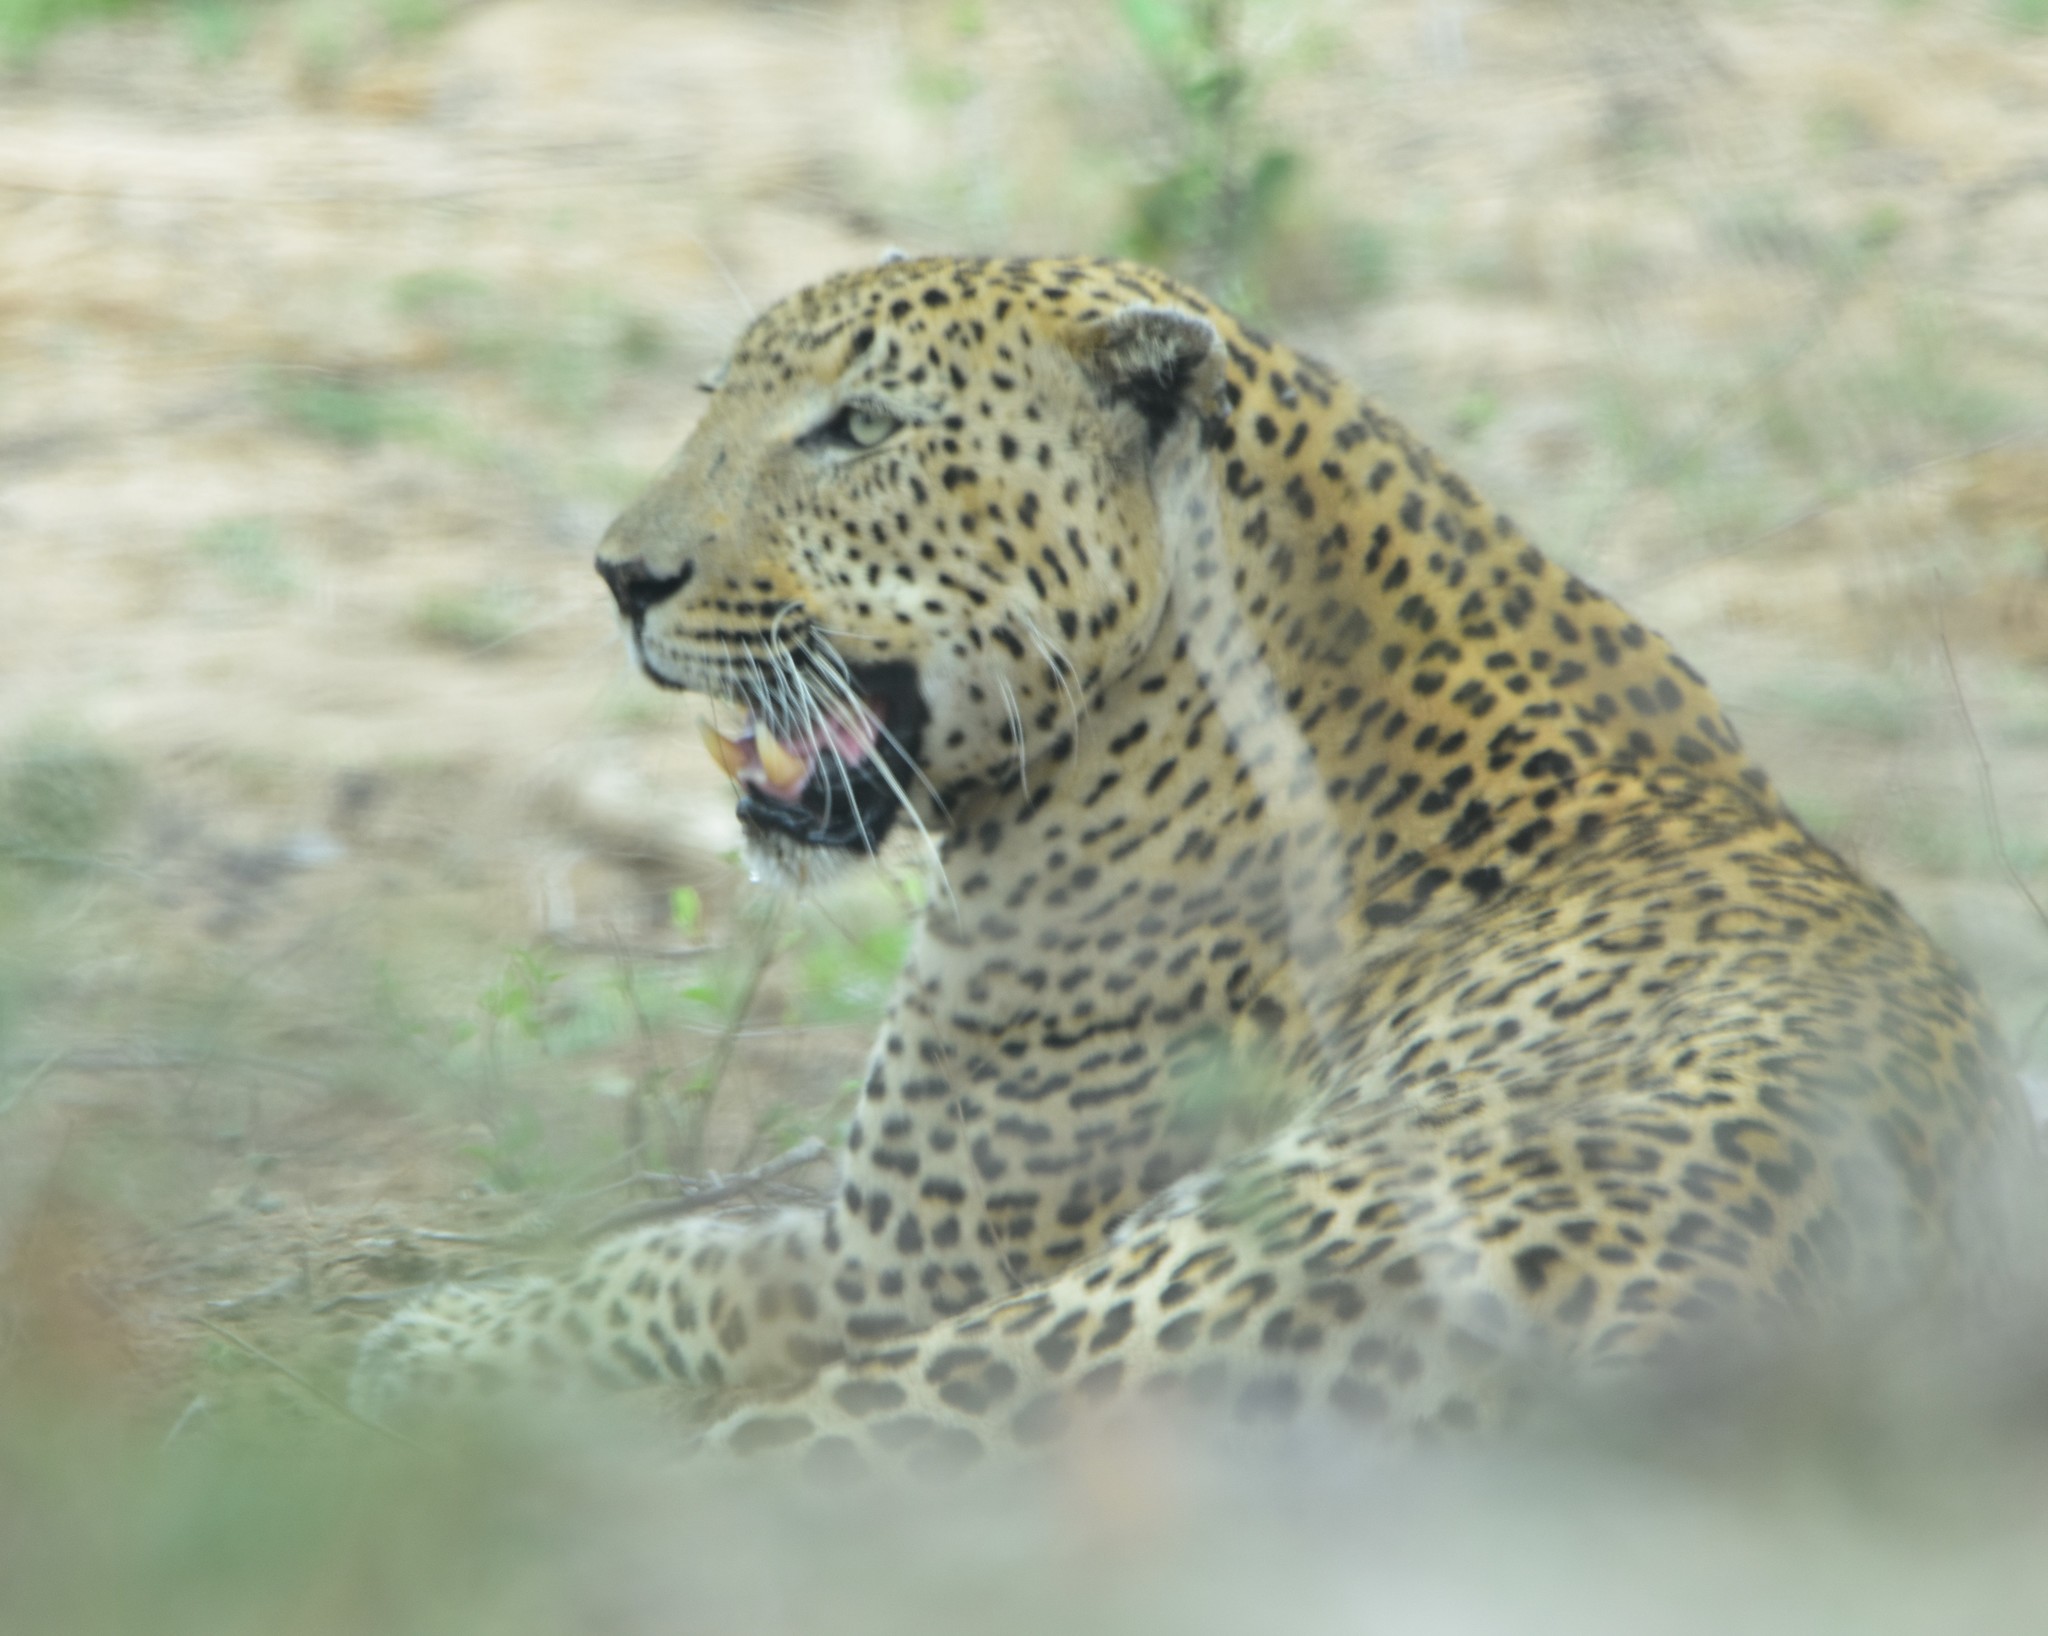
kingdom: Animalia
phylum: Chordata
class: Mammalia
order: Carnivora
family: Felidae
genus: Panthera
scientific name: Panthera pardus
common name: Leopard
